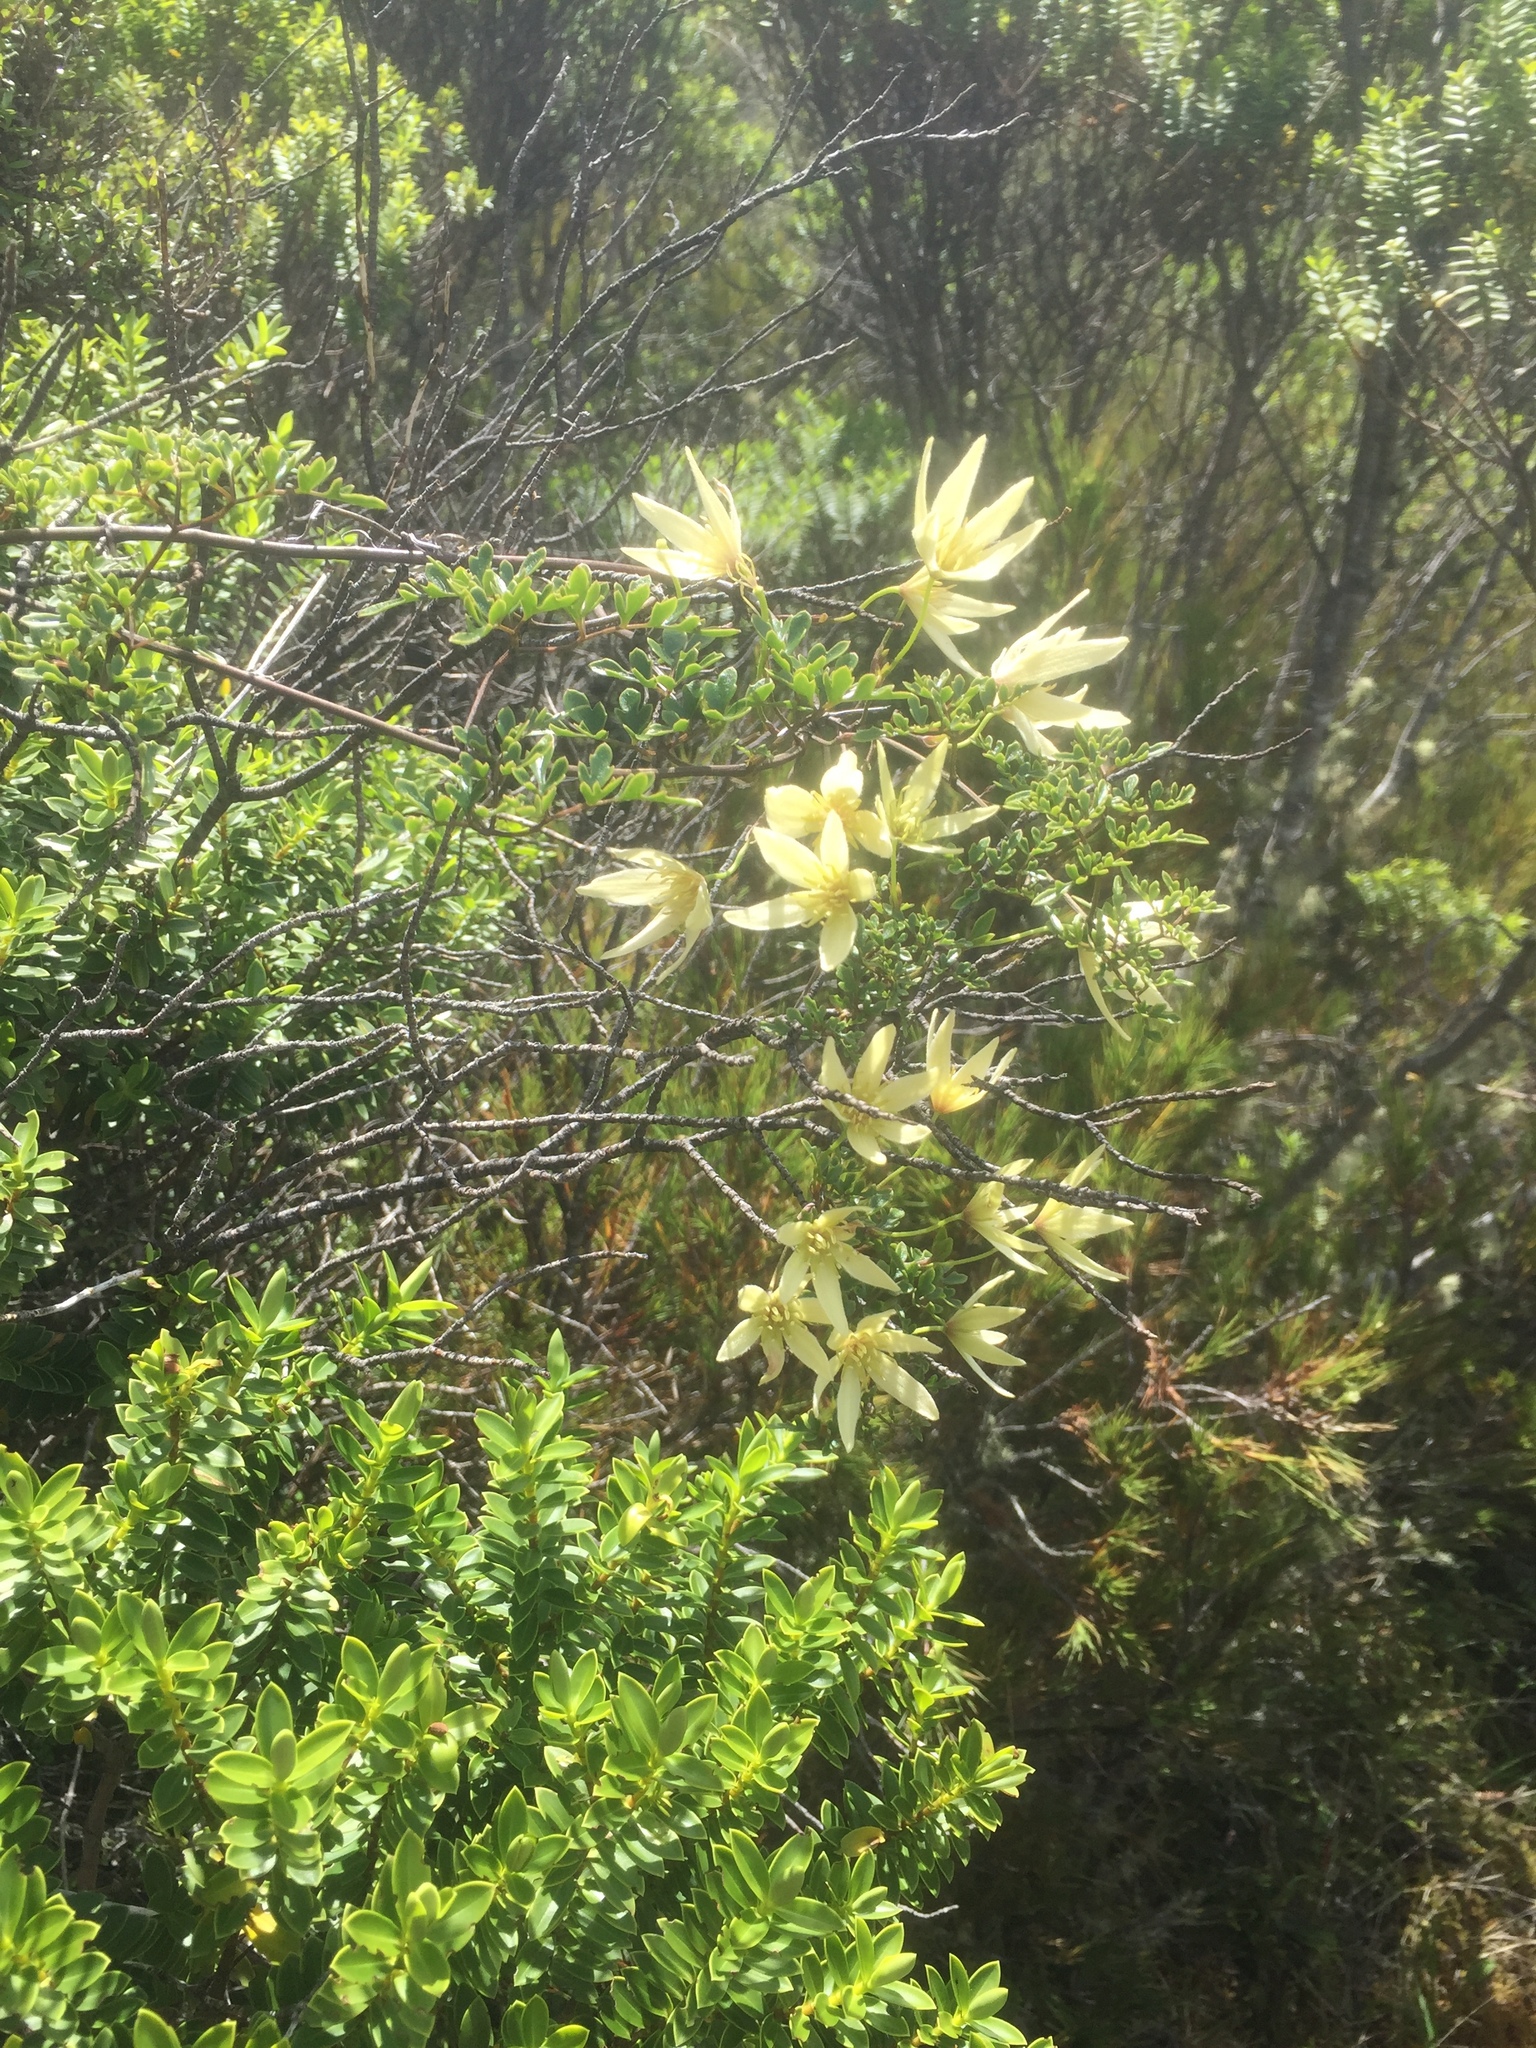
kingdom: Plantae
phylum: Tracheophyta
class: Magnoliopsida
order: Ranunculales
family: Ranunculaceae
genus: Clematis
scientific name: Clematis forsteri
